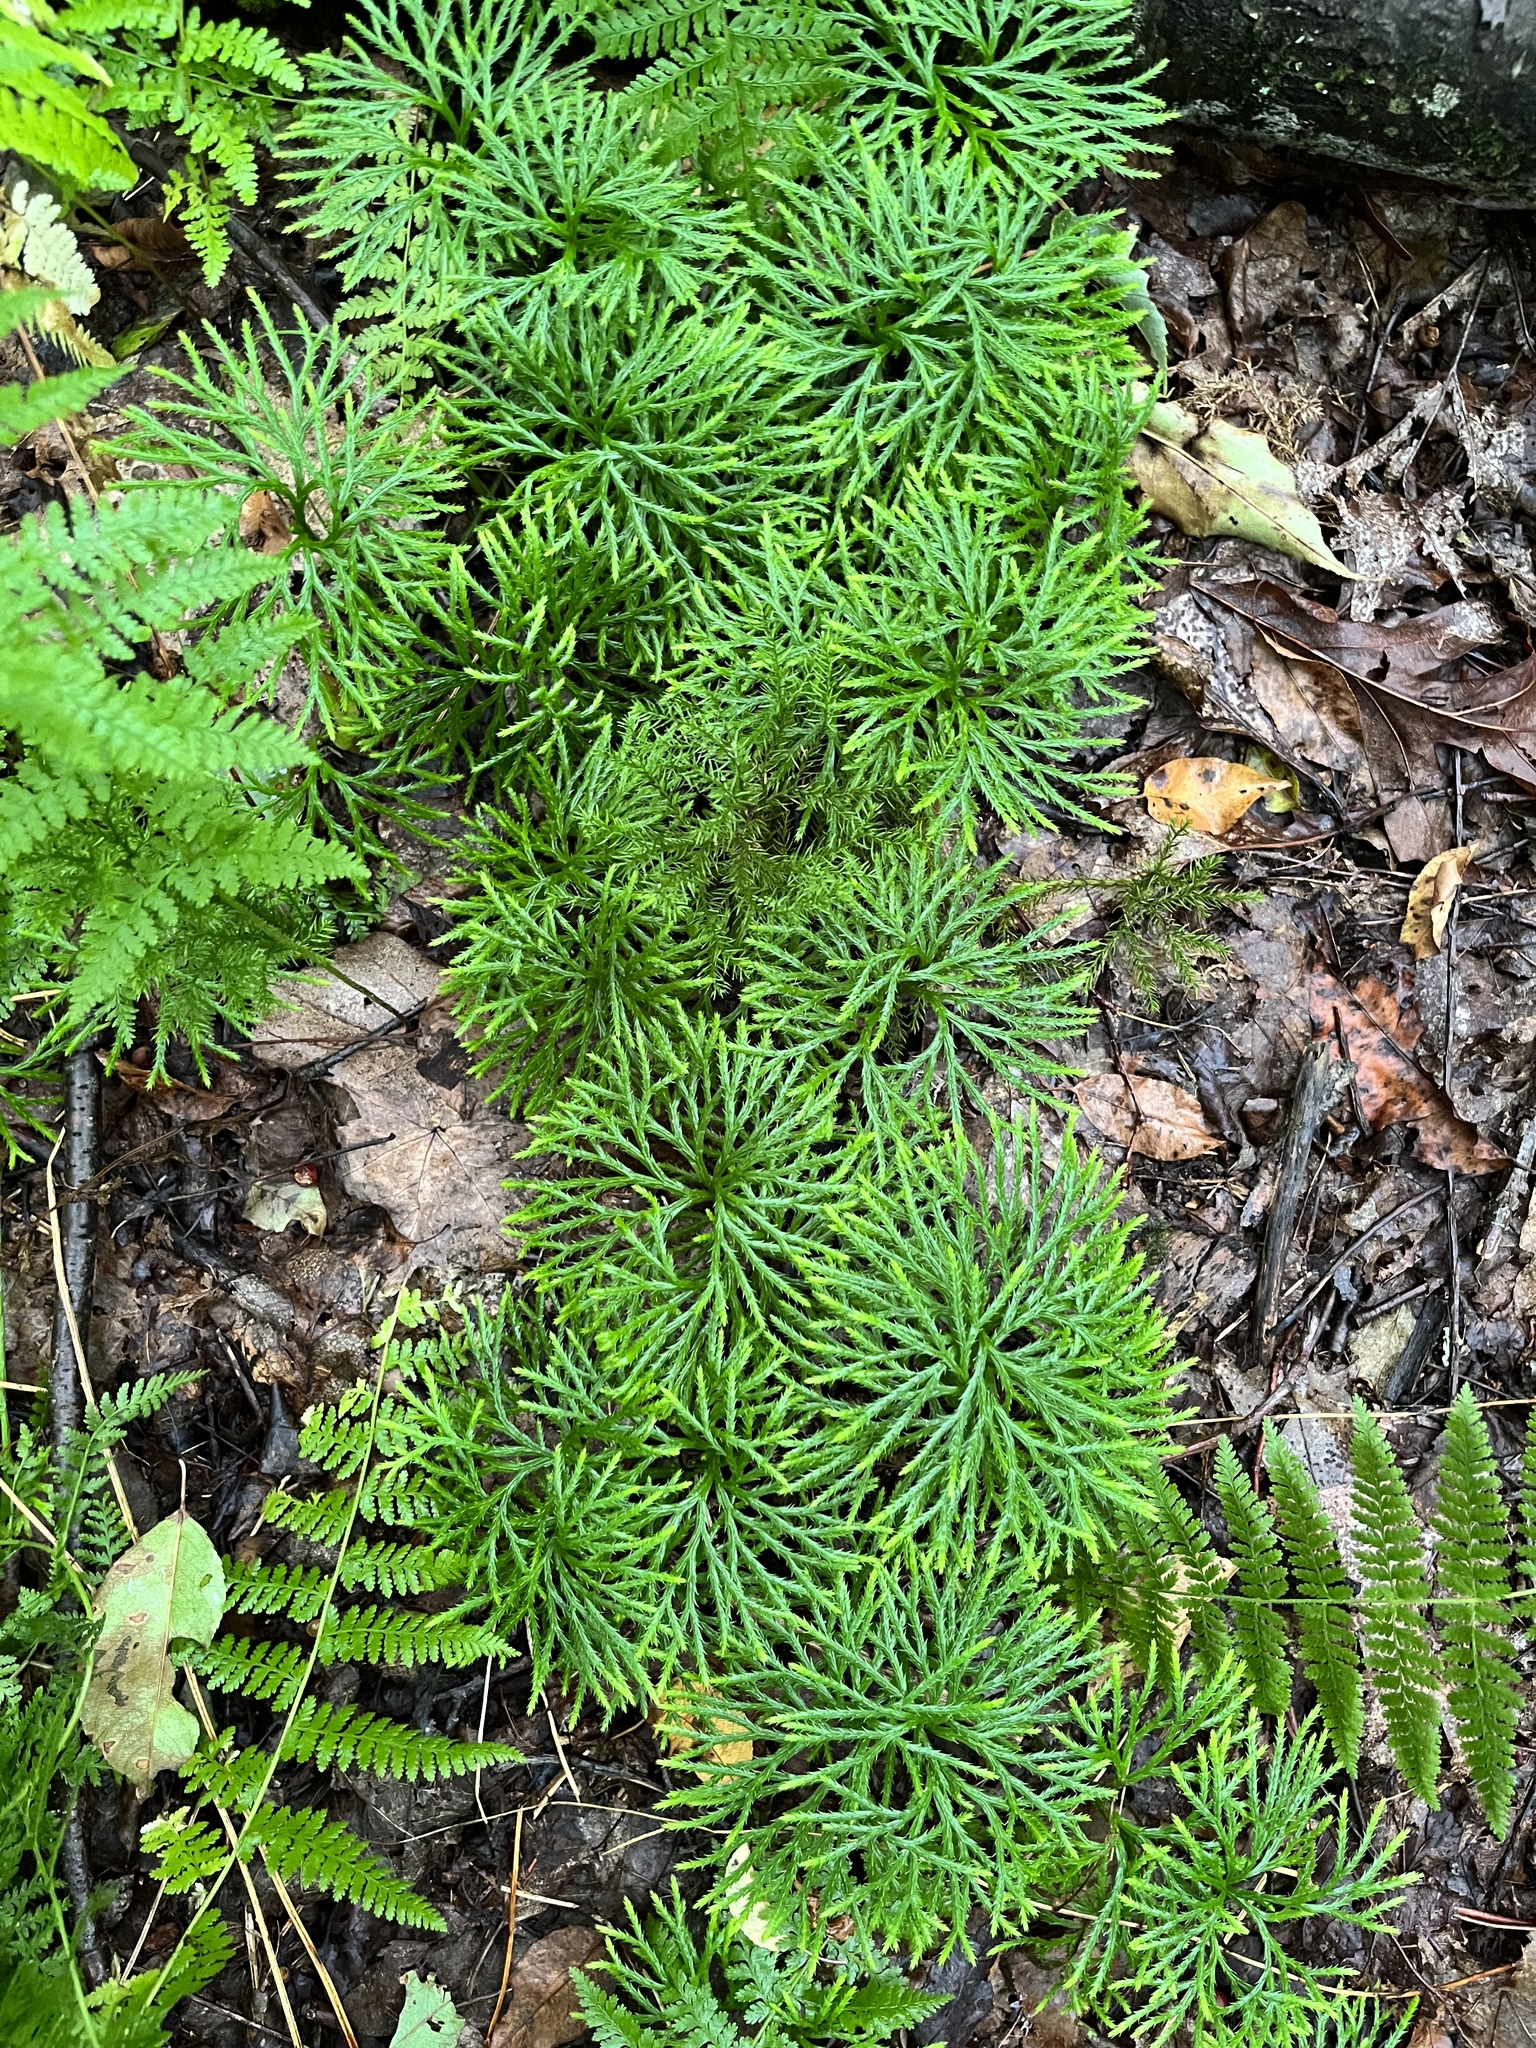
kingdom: Plantae
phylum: Tracheophyta
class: Lycopodiopsida
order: Lycopodiales
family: Lycopodiaceae
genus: Diphasiastrum
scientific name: Diphasiastrum digitatum
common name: Southern running-pine
